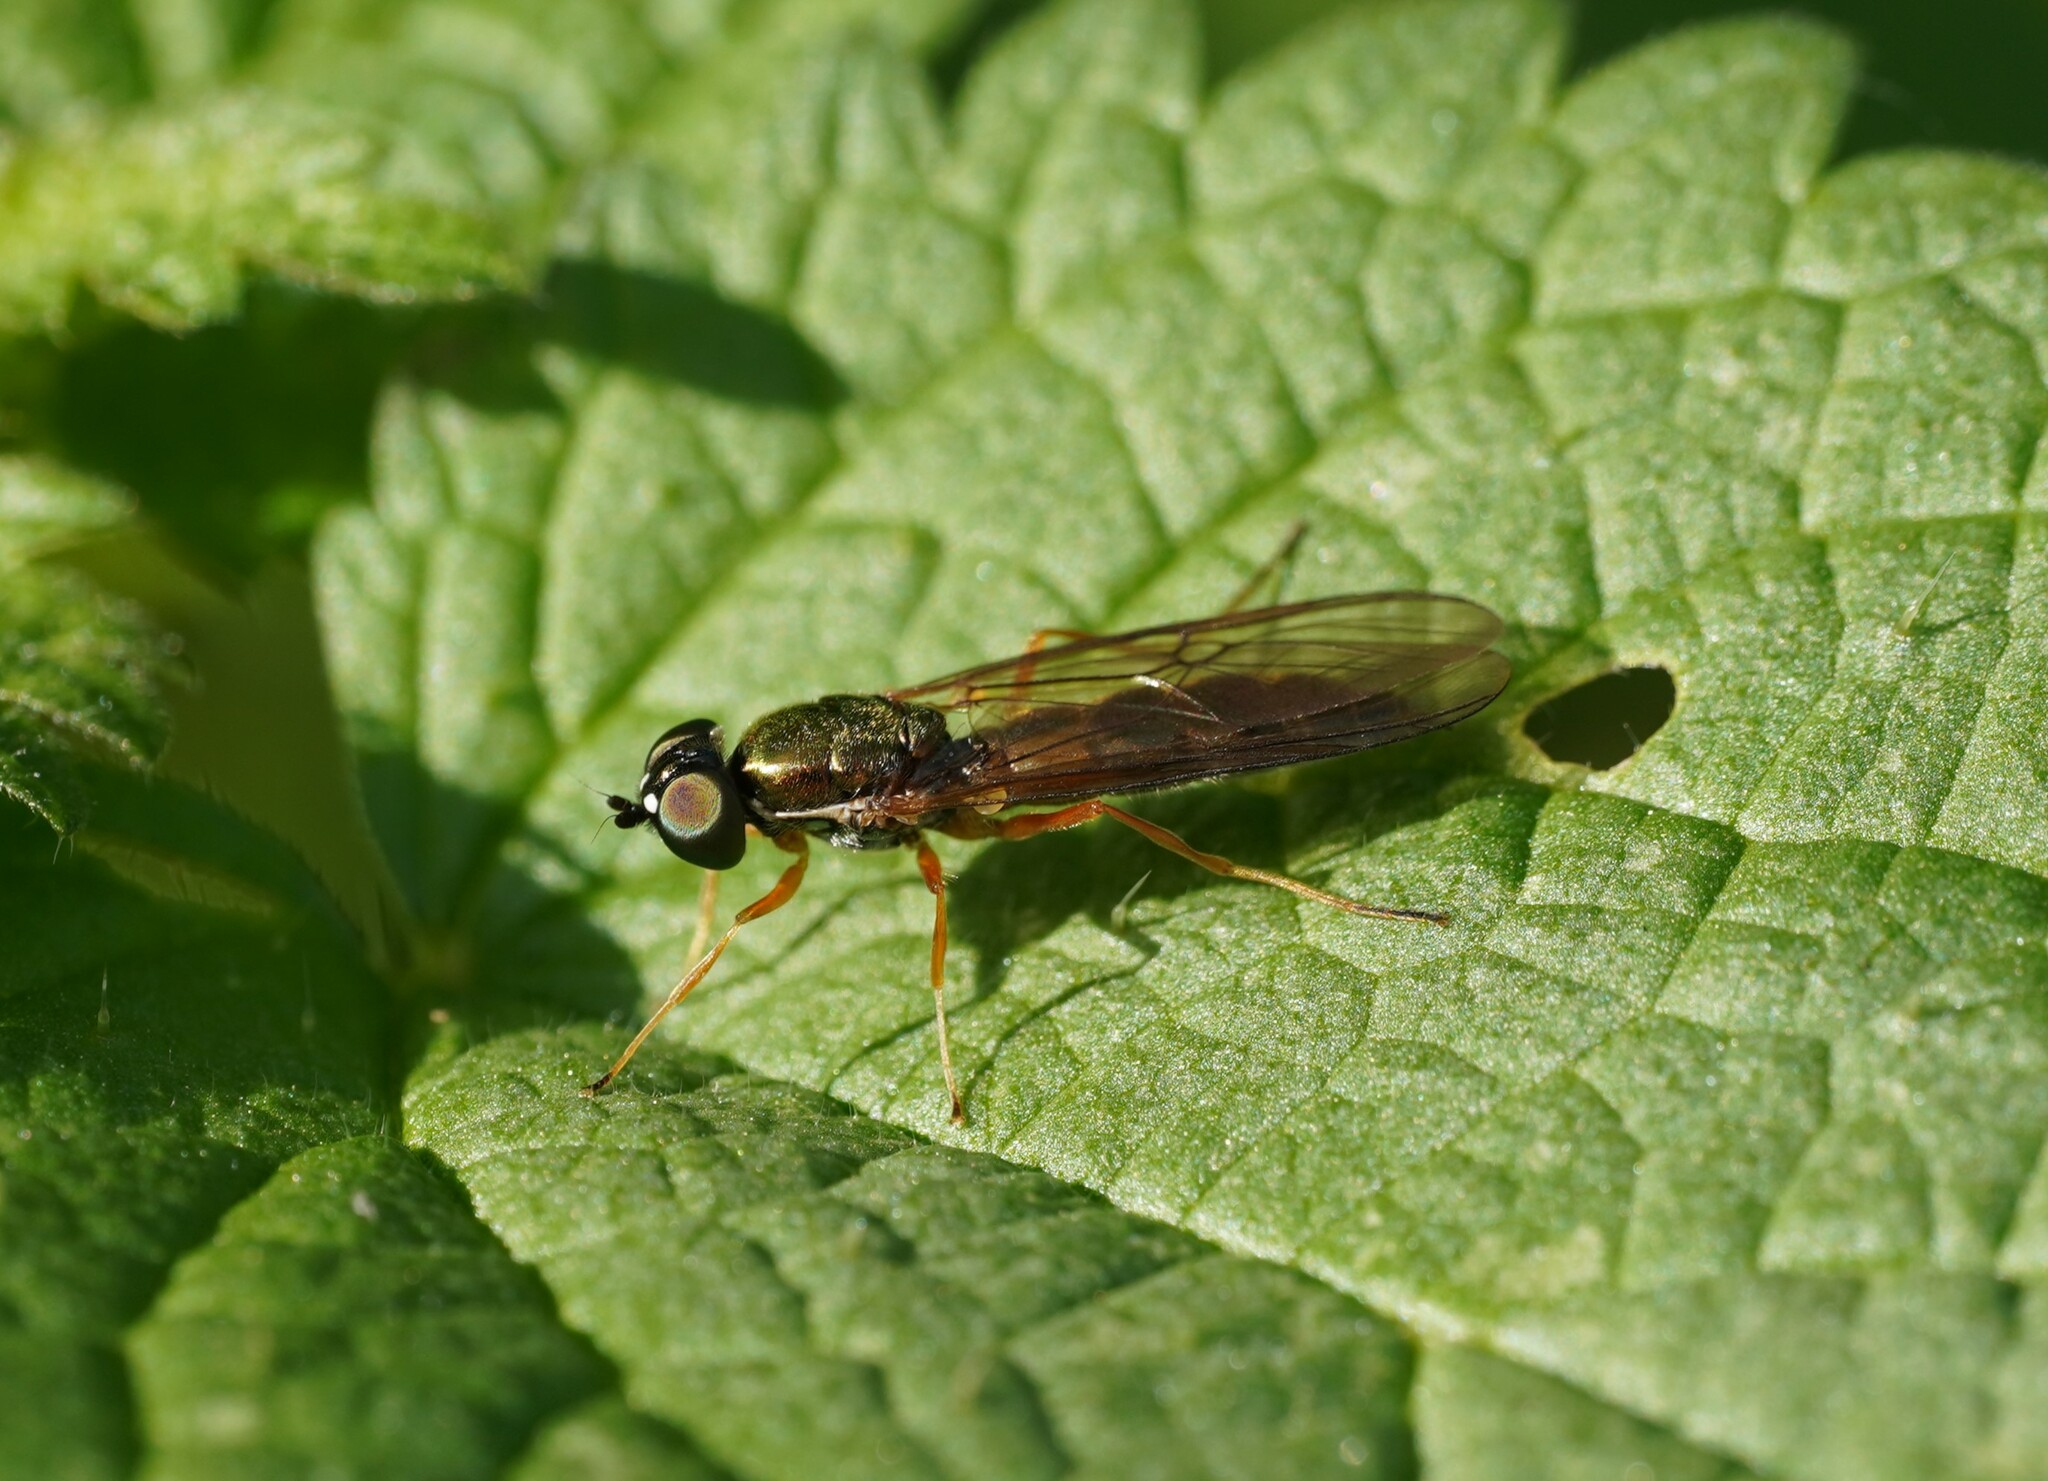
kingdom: Animalia
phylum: Arthropoda
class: Insecta
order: Diptera
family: Stratiomyidae
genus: Sargus
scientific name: Sargus bipunctatus
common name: Twin-spot centurion
